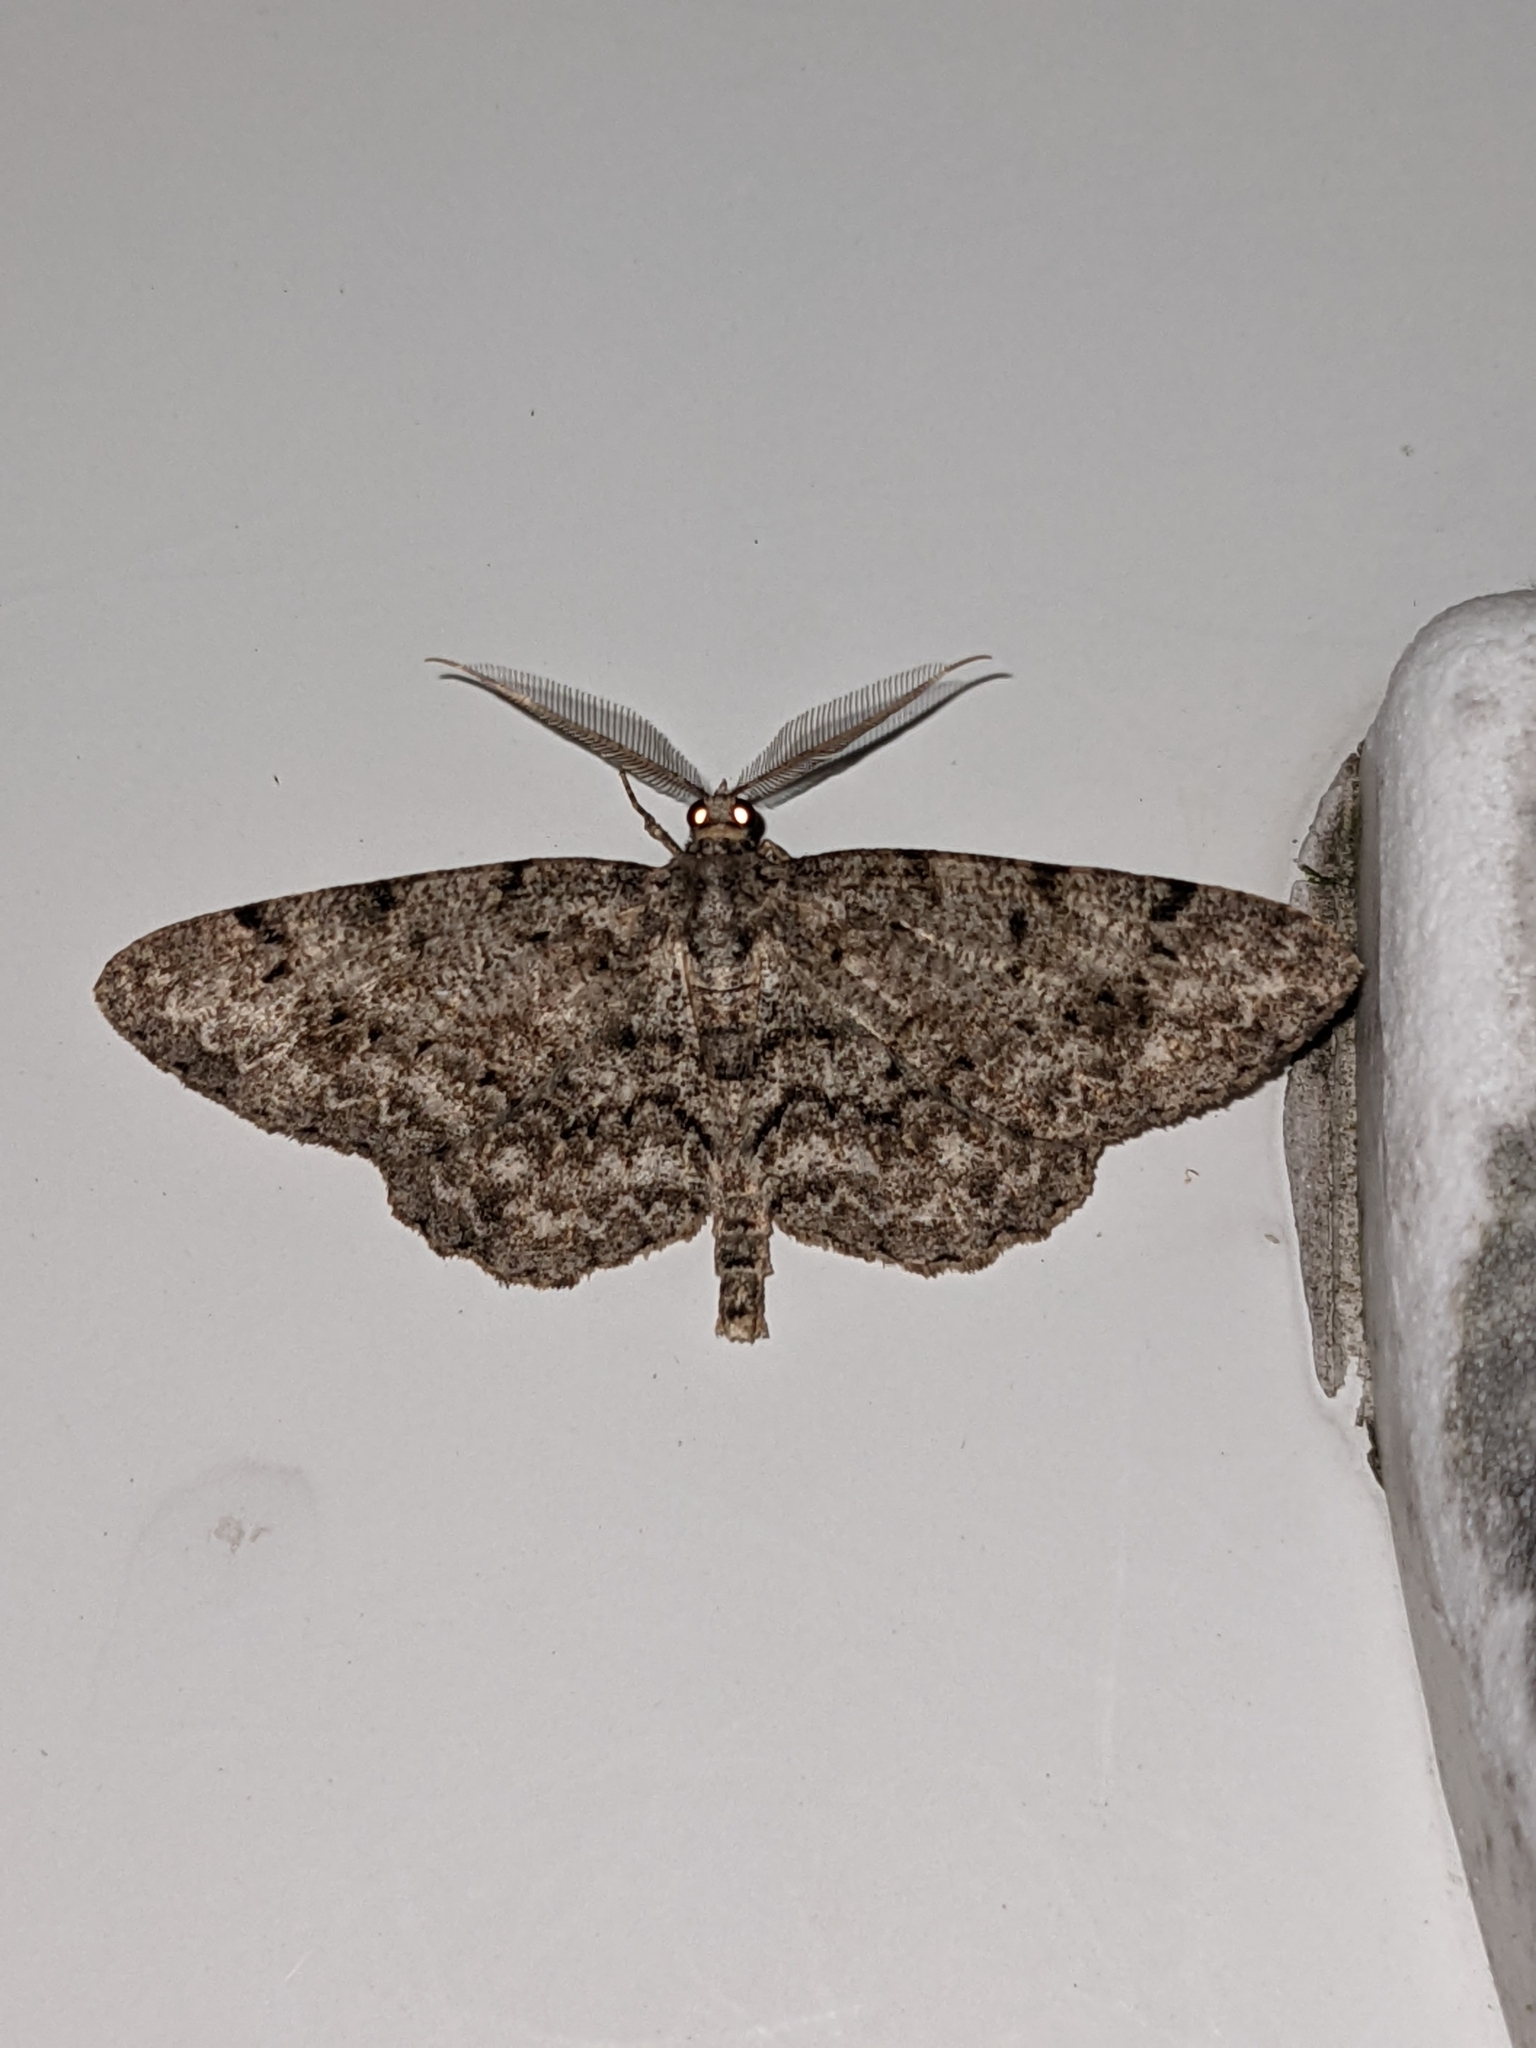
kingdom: Animalia
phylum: Arthropoda
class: Insecta
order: Lepidoptera
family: Geometridae
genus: Protoboarmia
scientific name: Protoboarmia porcelaria
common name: Porcelain gray
